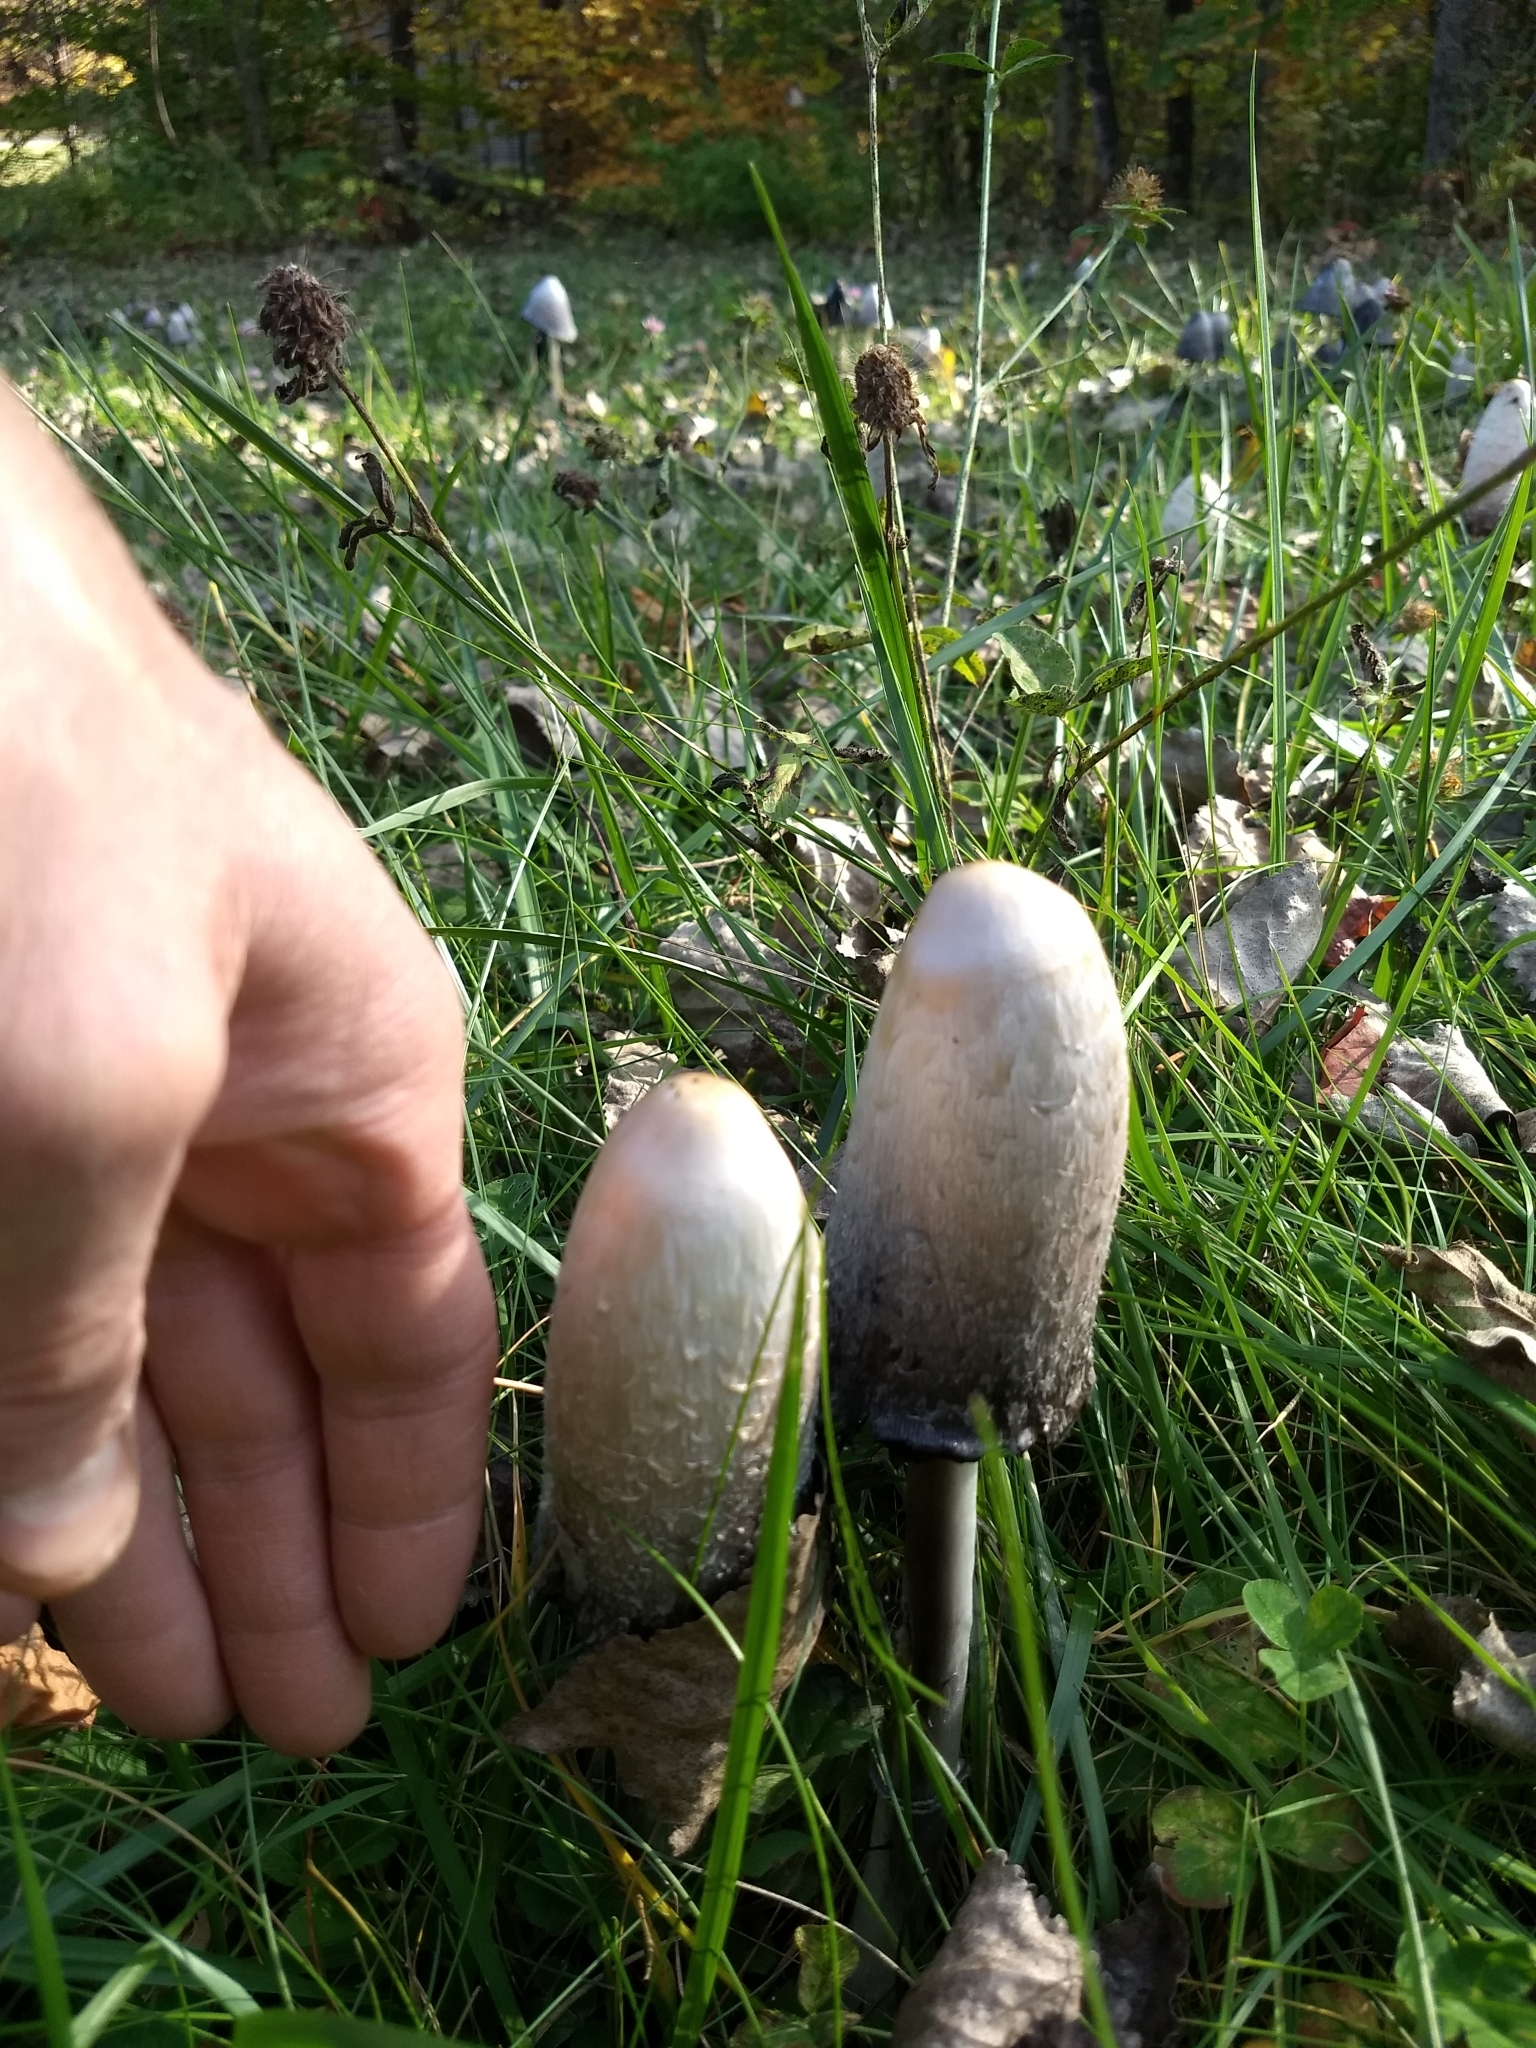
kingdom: Fungi
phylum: Basidiomycota
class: Agaricomycetes
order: Agaricales
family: Agaricaceae
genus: Coprinus
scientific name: Coprinus comatus
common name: Lawyer's wig
